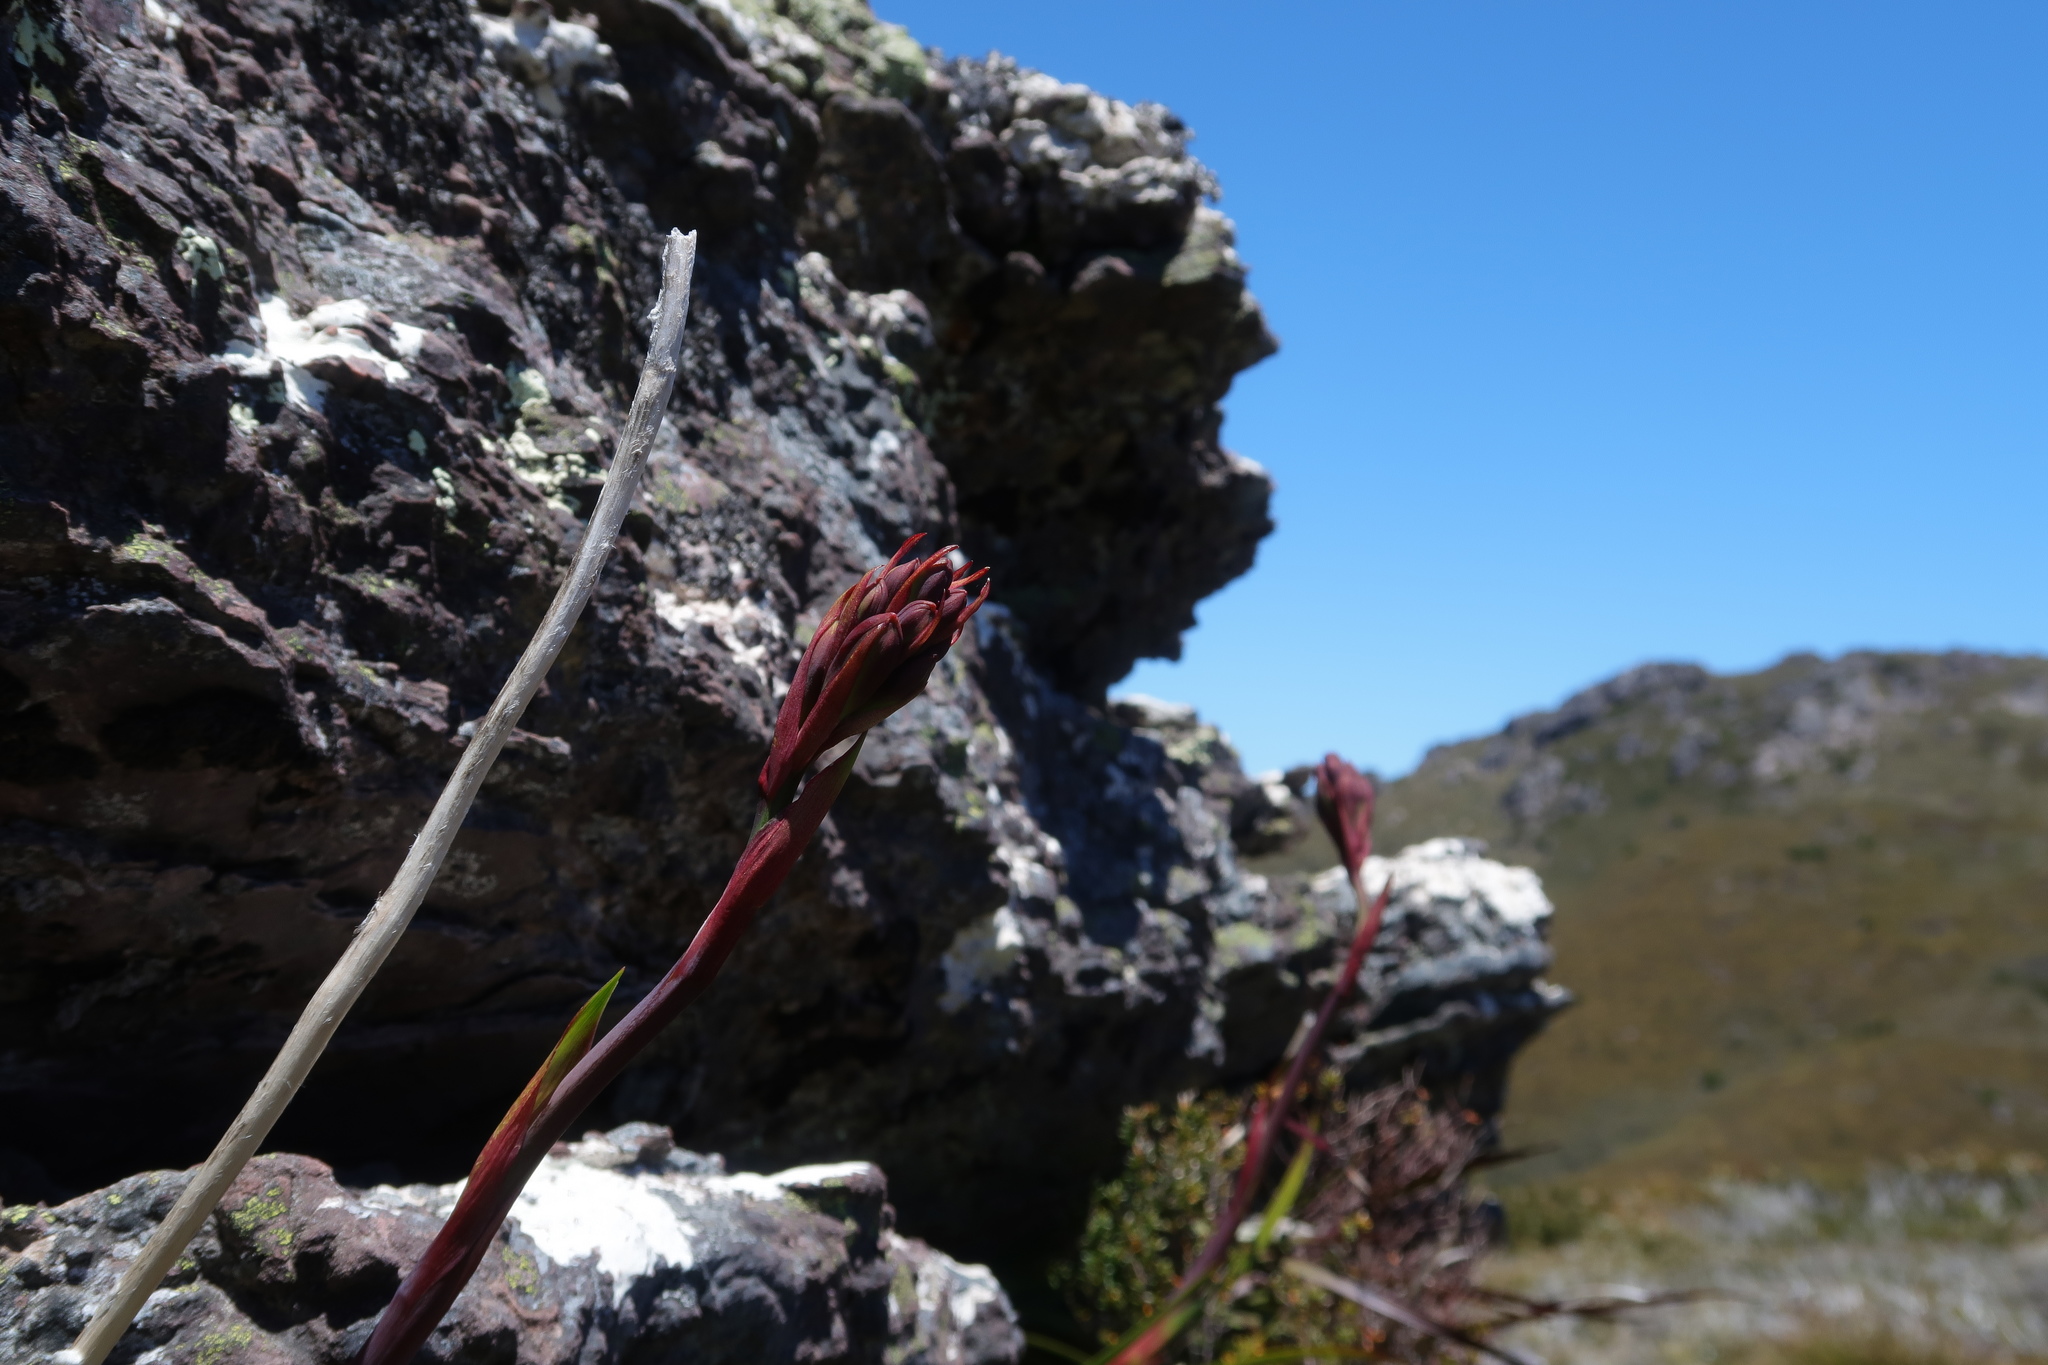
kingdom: Plantae
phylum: Tracheophyta
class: Liliopsida
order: Asparagales
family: Blandfordiaceae
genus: Blandfordia
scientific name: Blandfordia punicea
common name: Tasmanian christmas-bell
